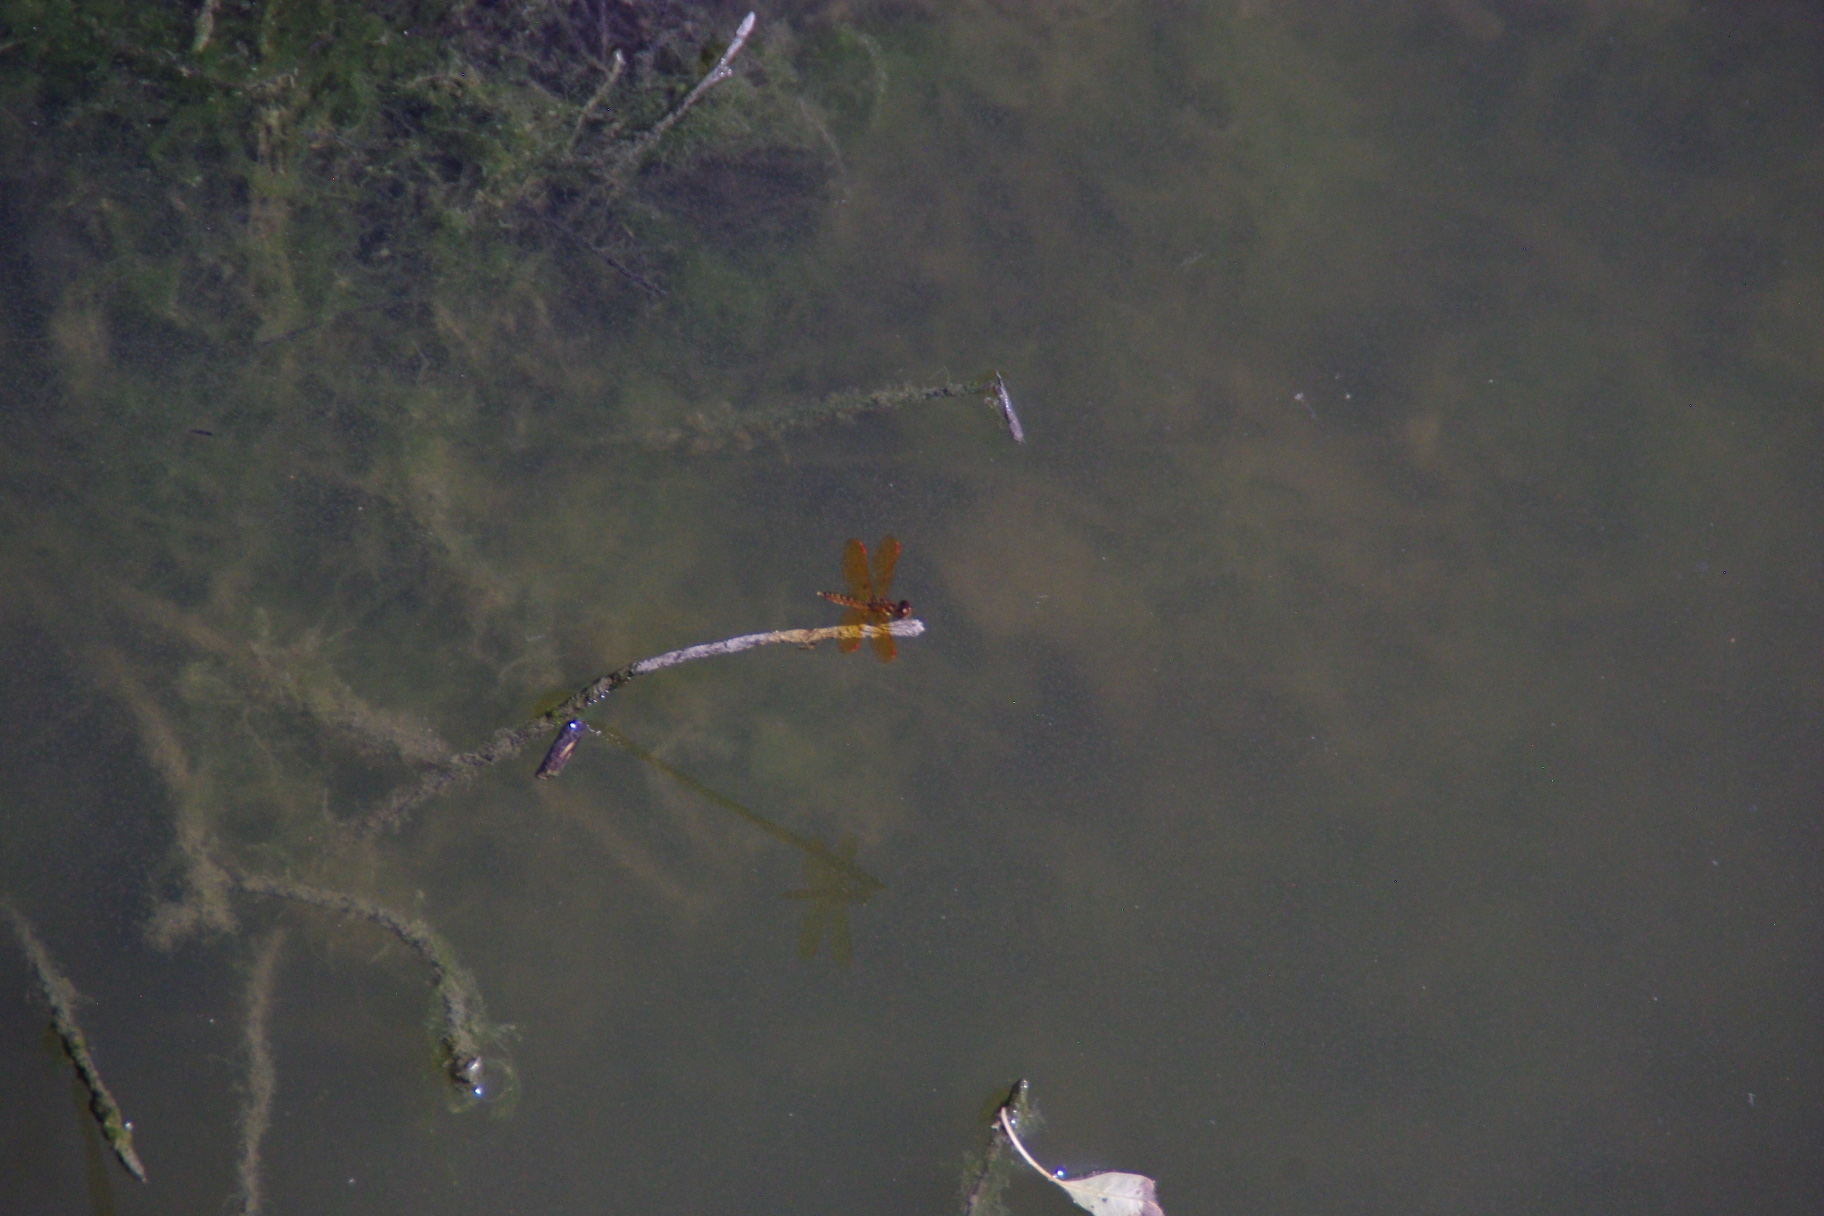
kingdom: Animalia
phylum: Arthropoda
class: Insecta
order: Odonata
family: Libellulidae
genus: Perithemis
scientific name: Perithemis tenera
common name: Eastern amberwing
